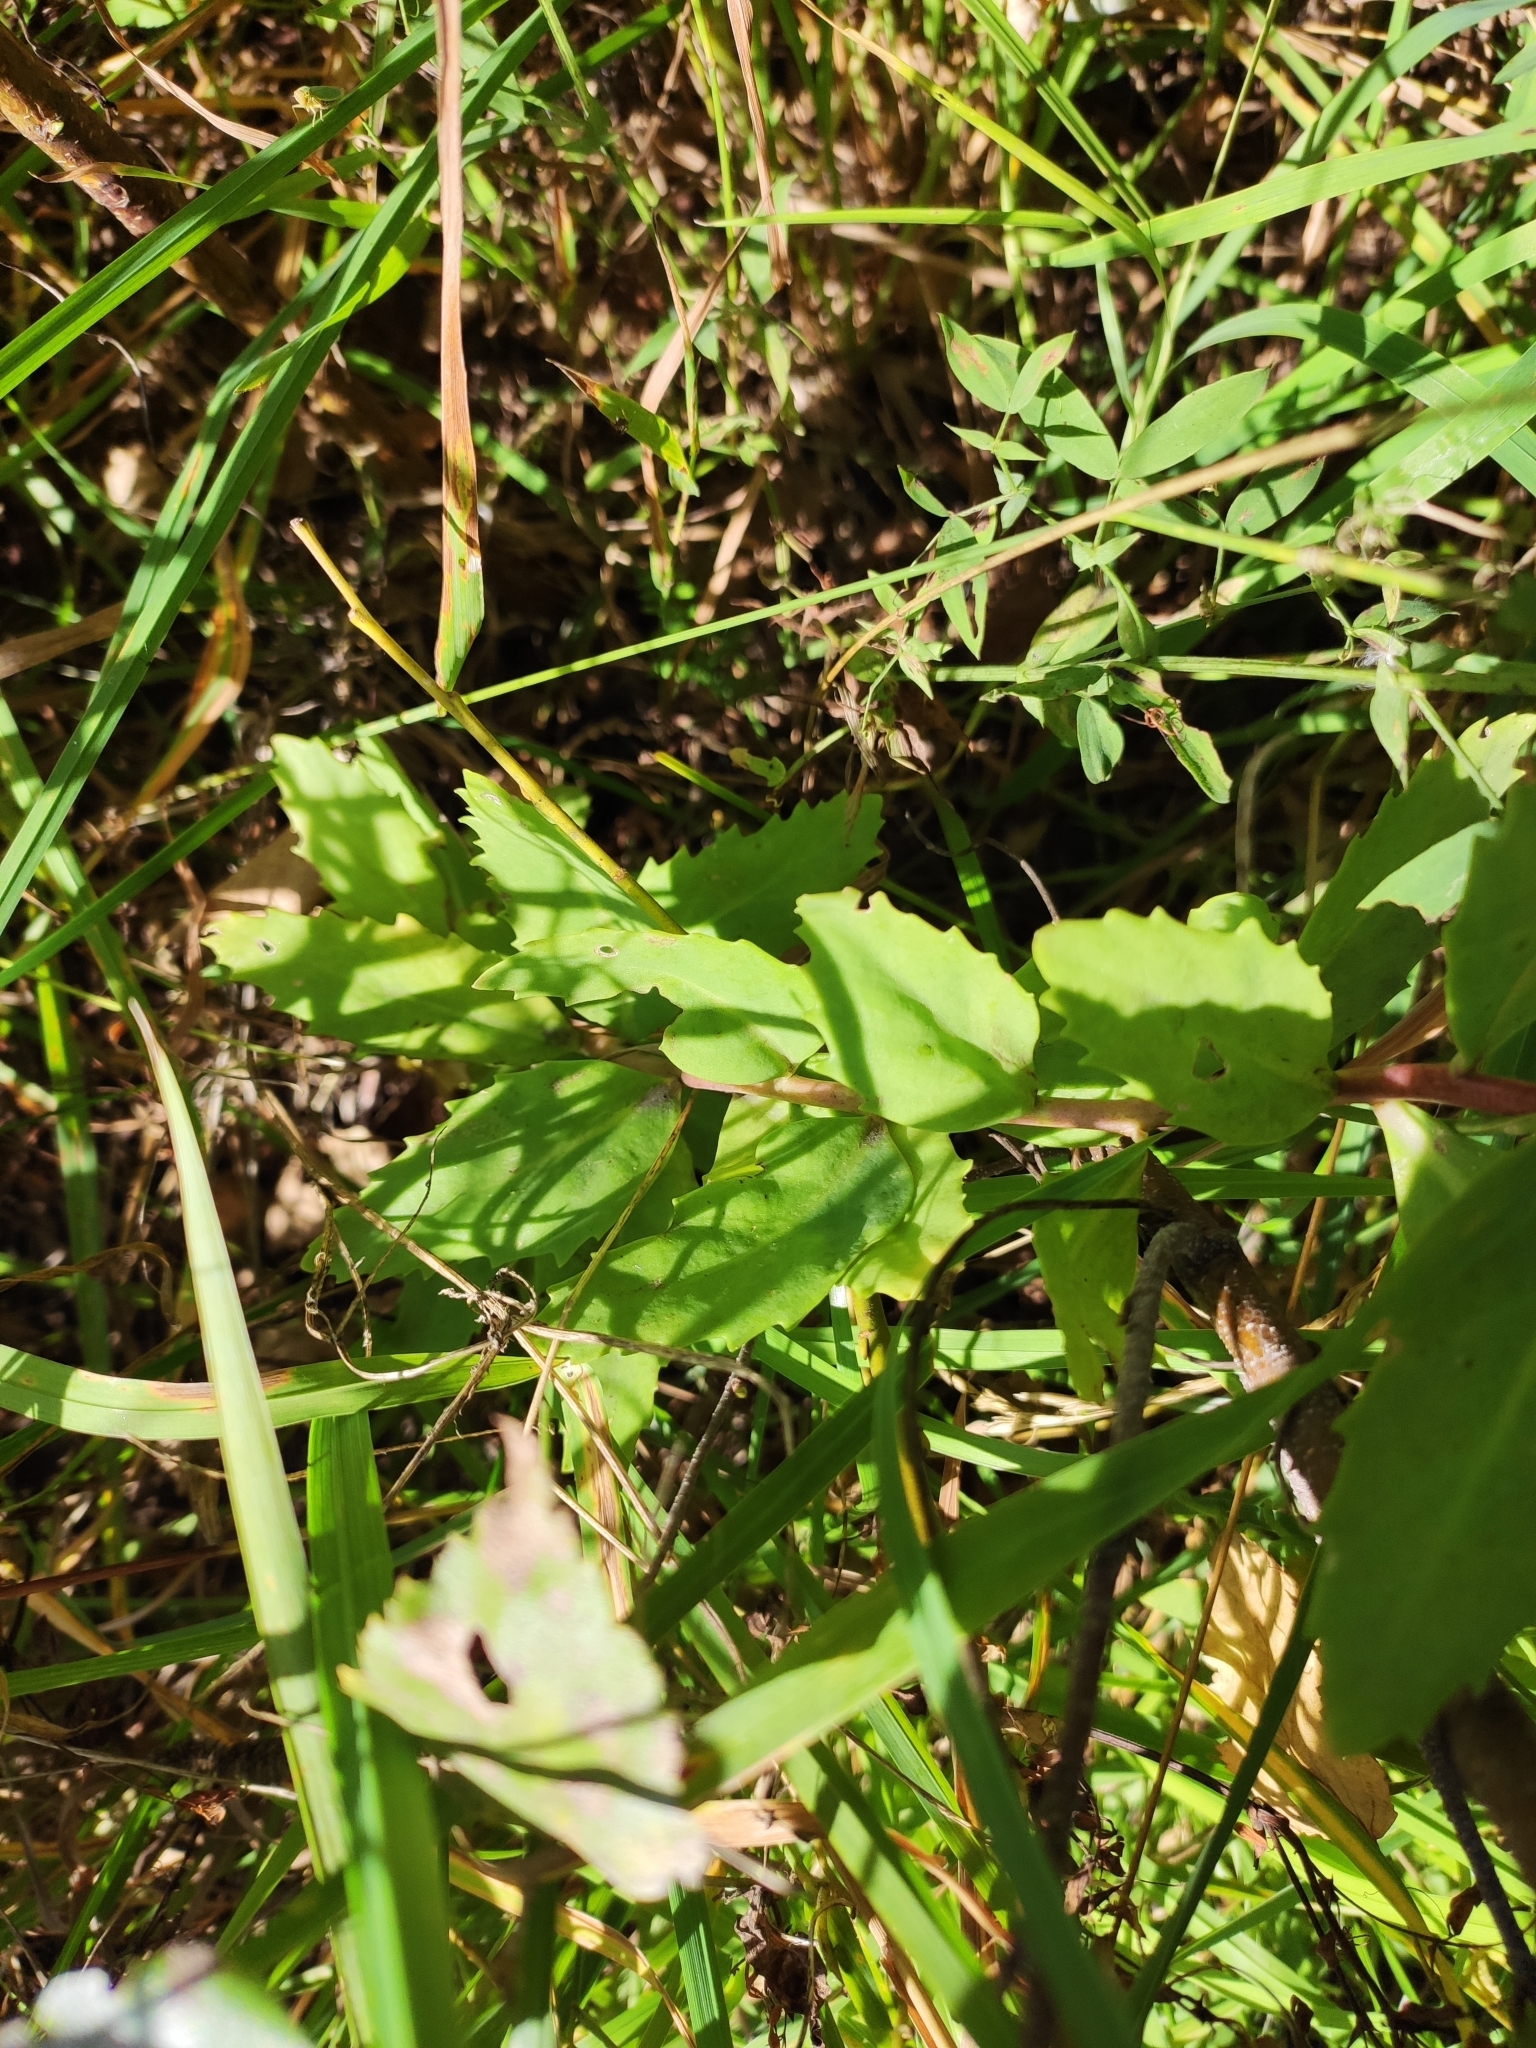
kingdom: Plantae
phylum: Tracheophyta
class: Magnoliopsida
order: Saxifragales
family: Crassulaceae
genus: Hylotelephium
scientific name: Hylotelephium telephium
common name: Live-forever
